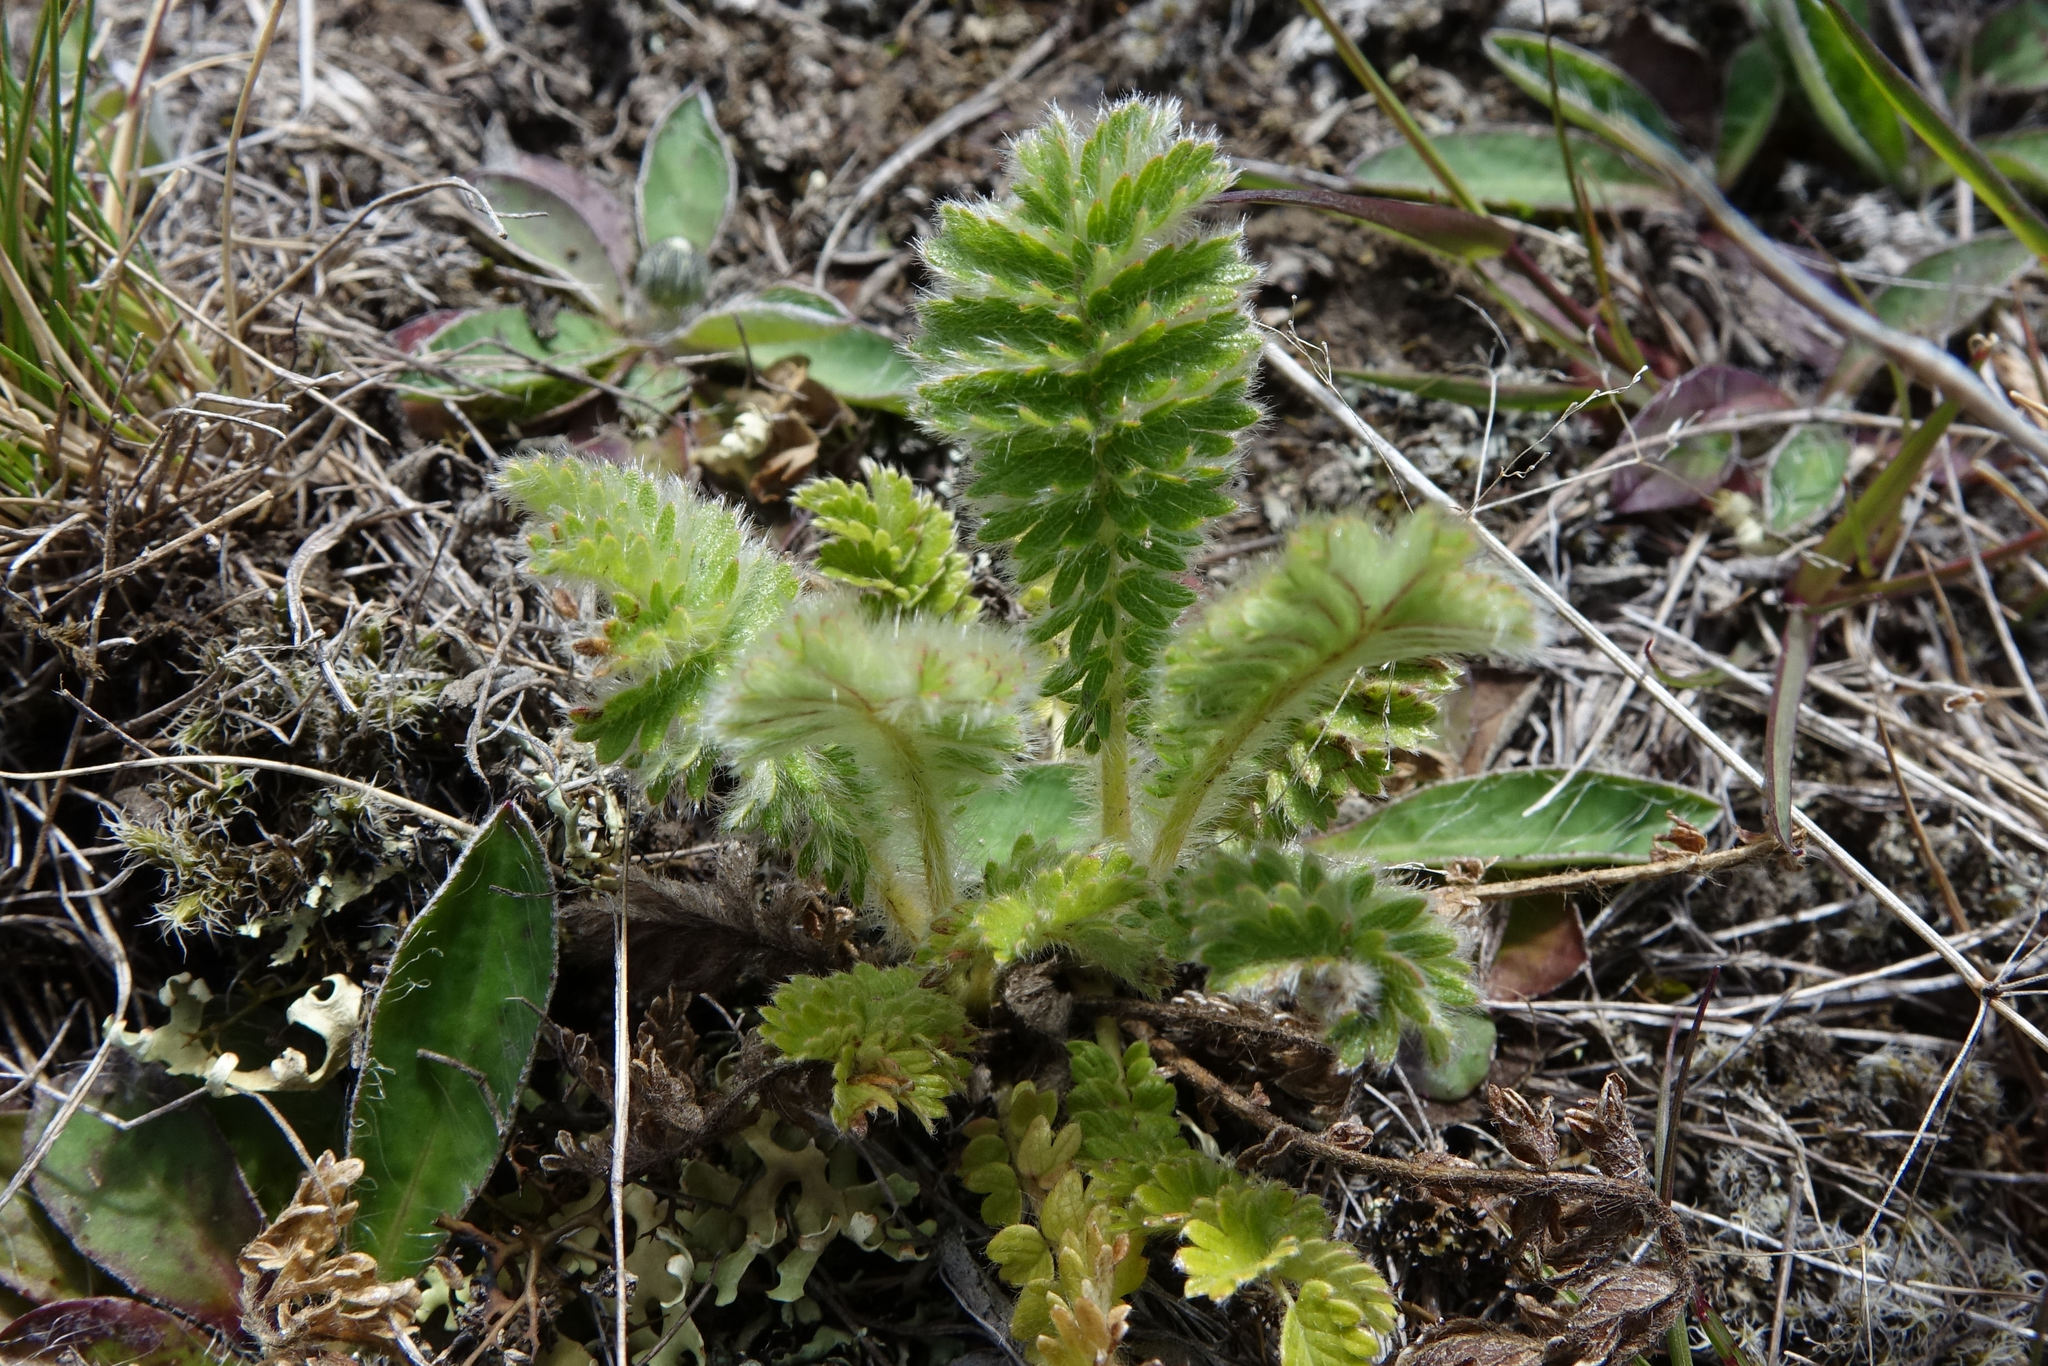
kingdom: Plantae
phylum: Tracheophyta
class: Magnoliopsida
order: Rosales
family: Rosaceae
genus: Acaena
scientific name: Acaena agnipila
